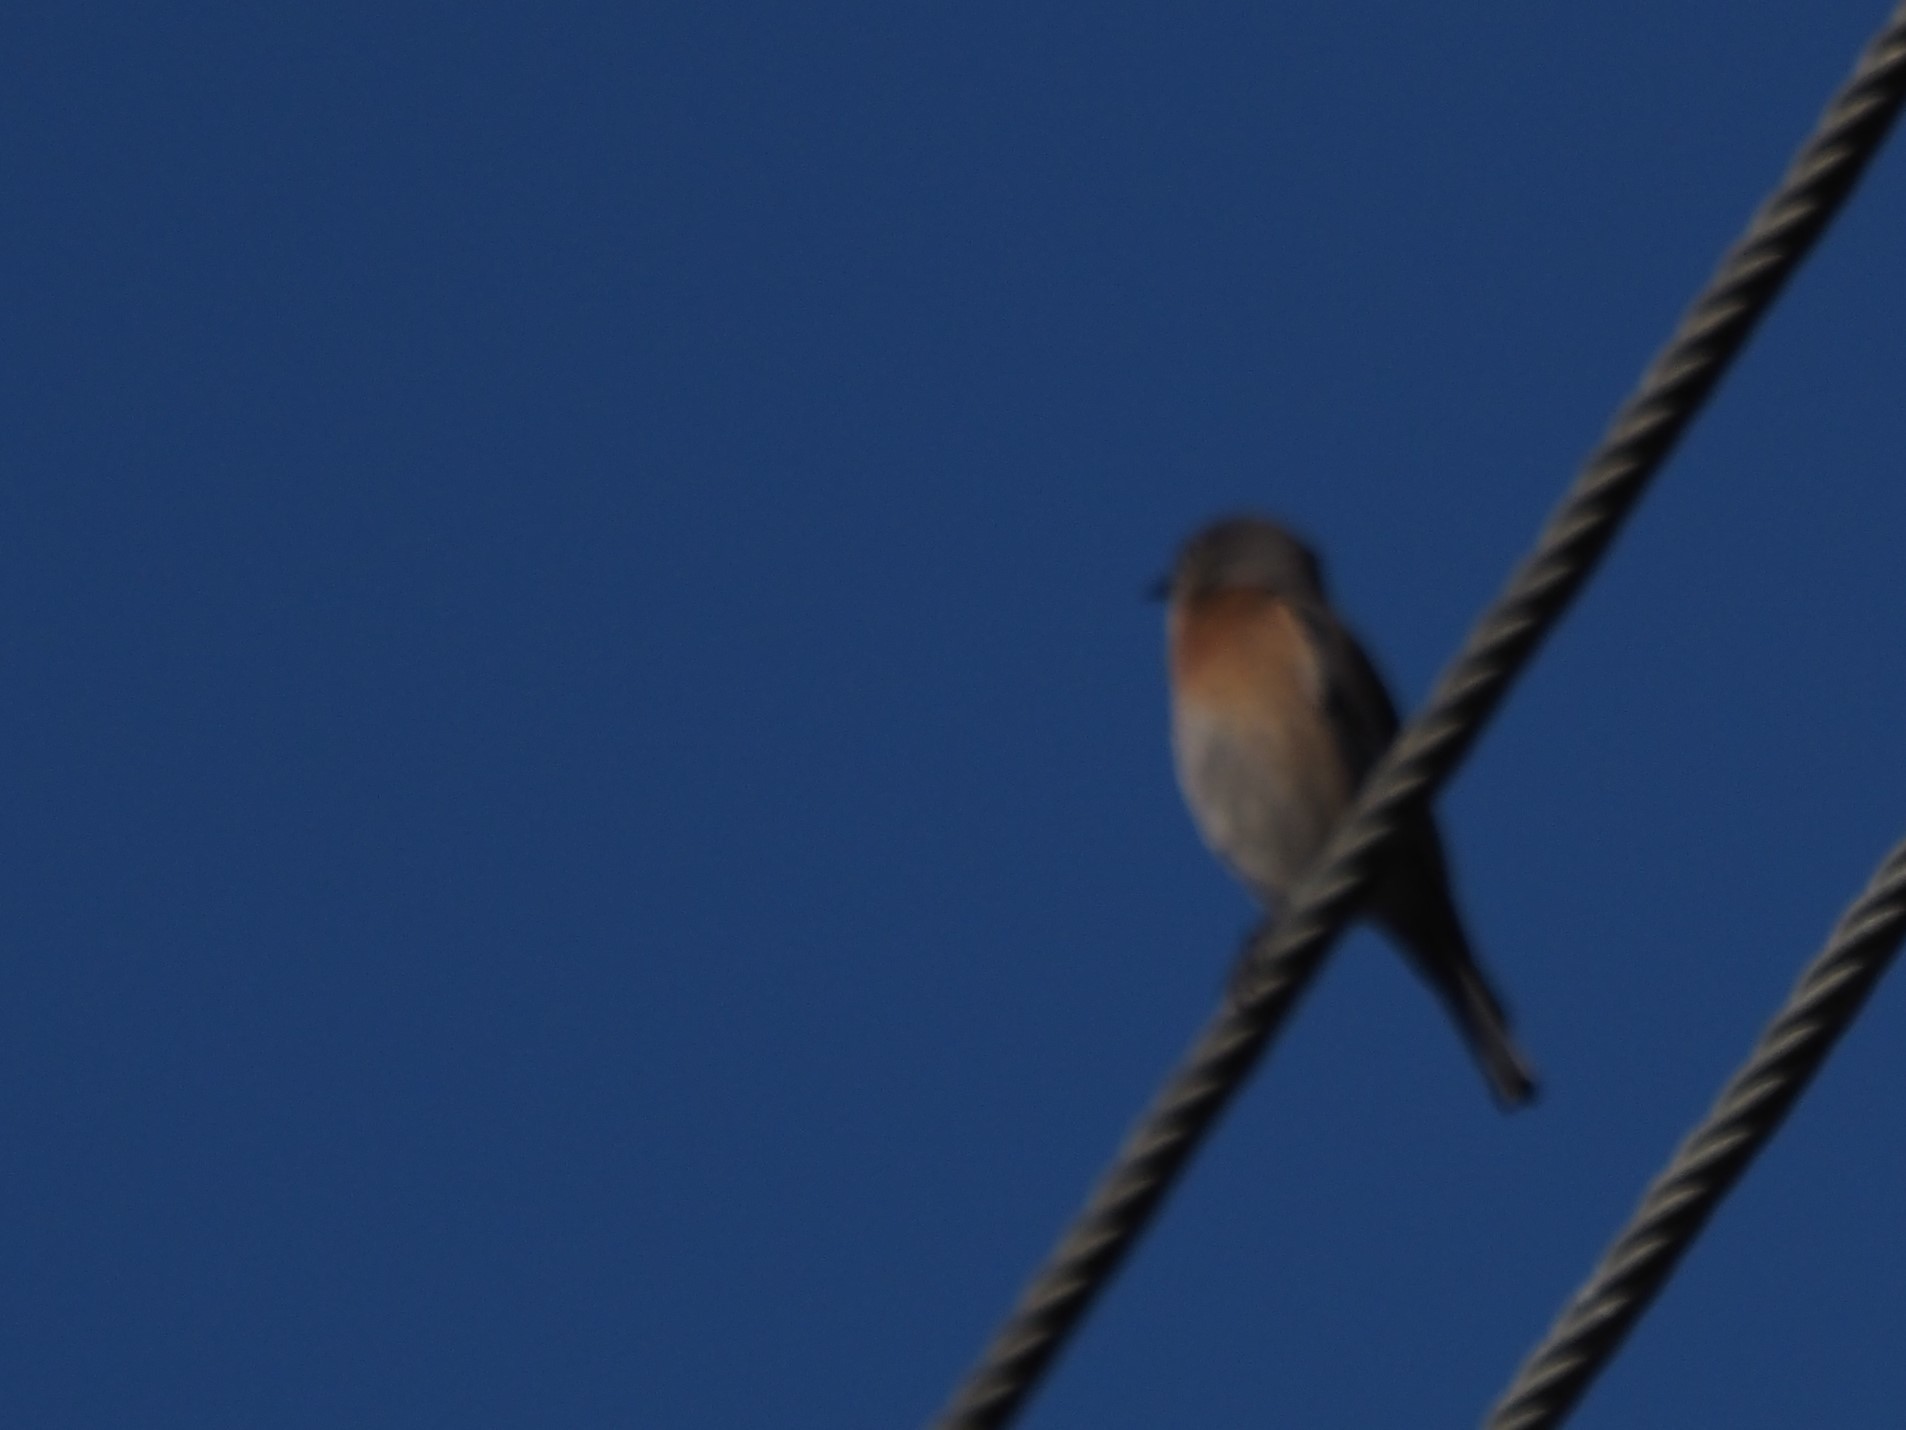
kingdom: Animalia
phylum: Chordata
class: Aves
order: Passeriformes
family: Turdidae
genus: Sialia
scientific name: Sialia mexicana
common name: Western bluebird
